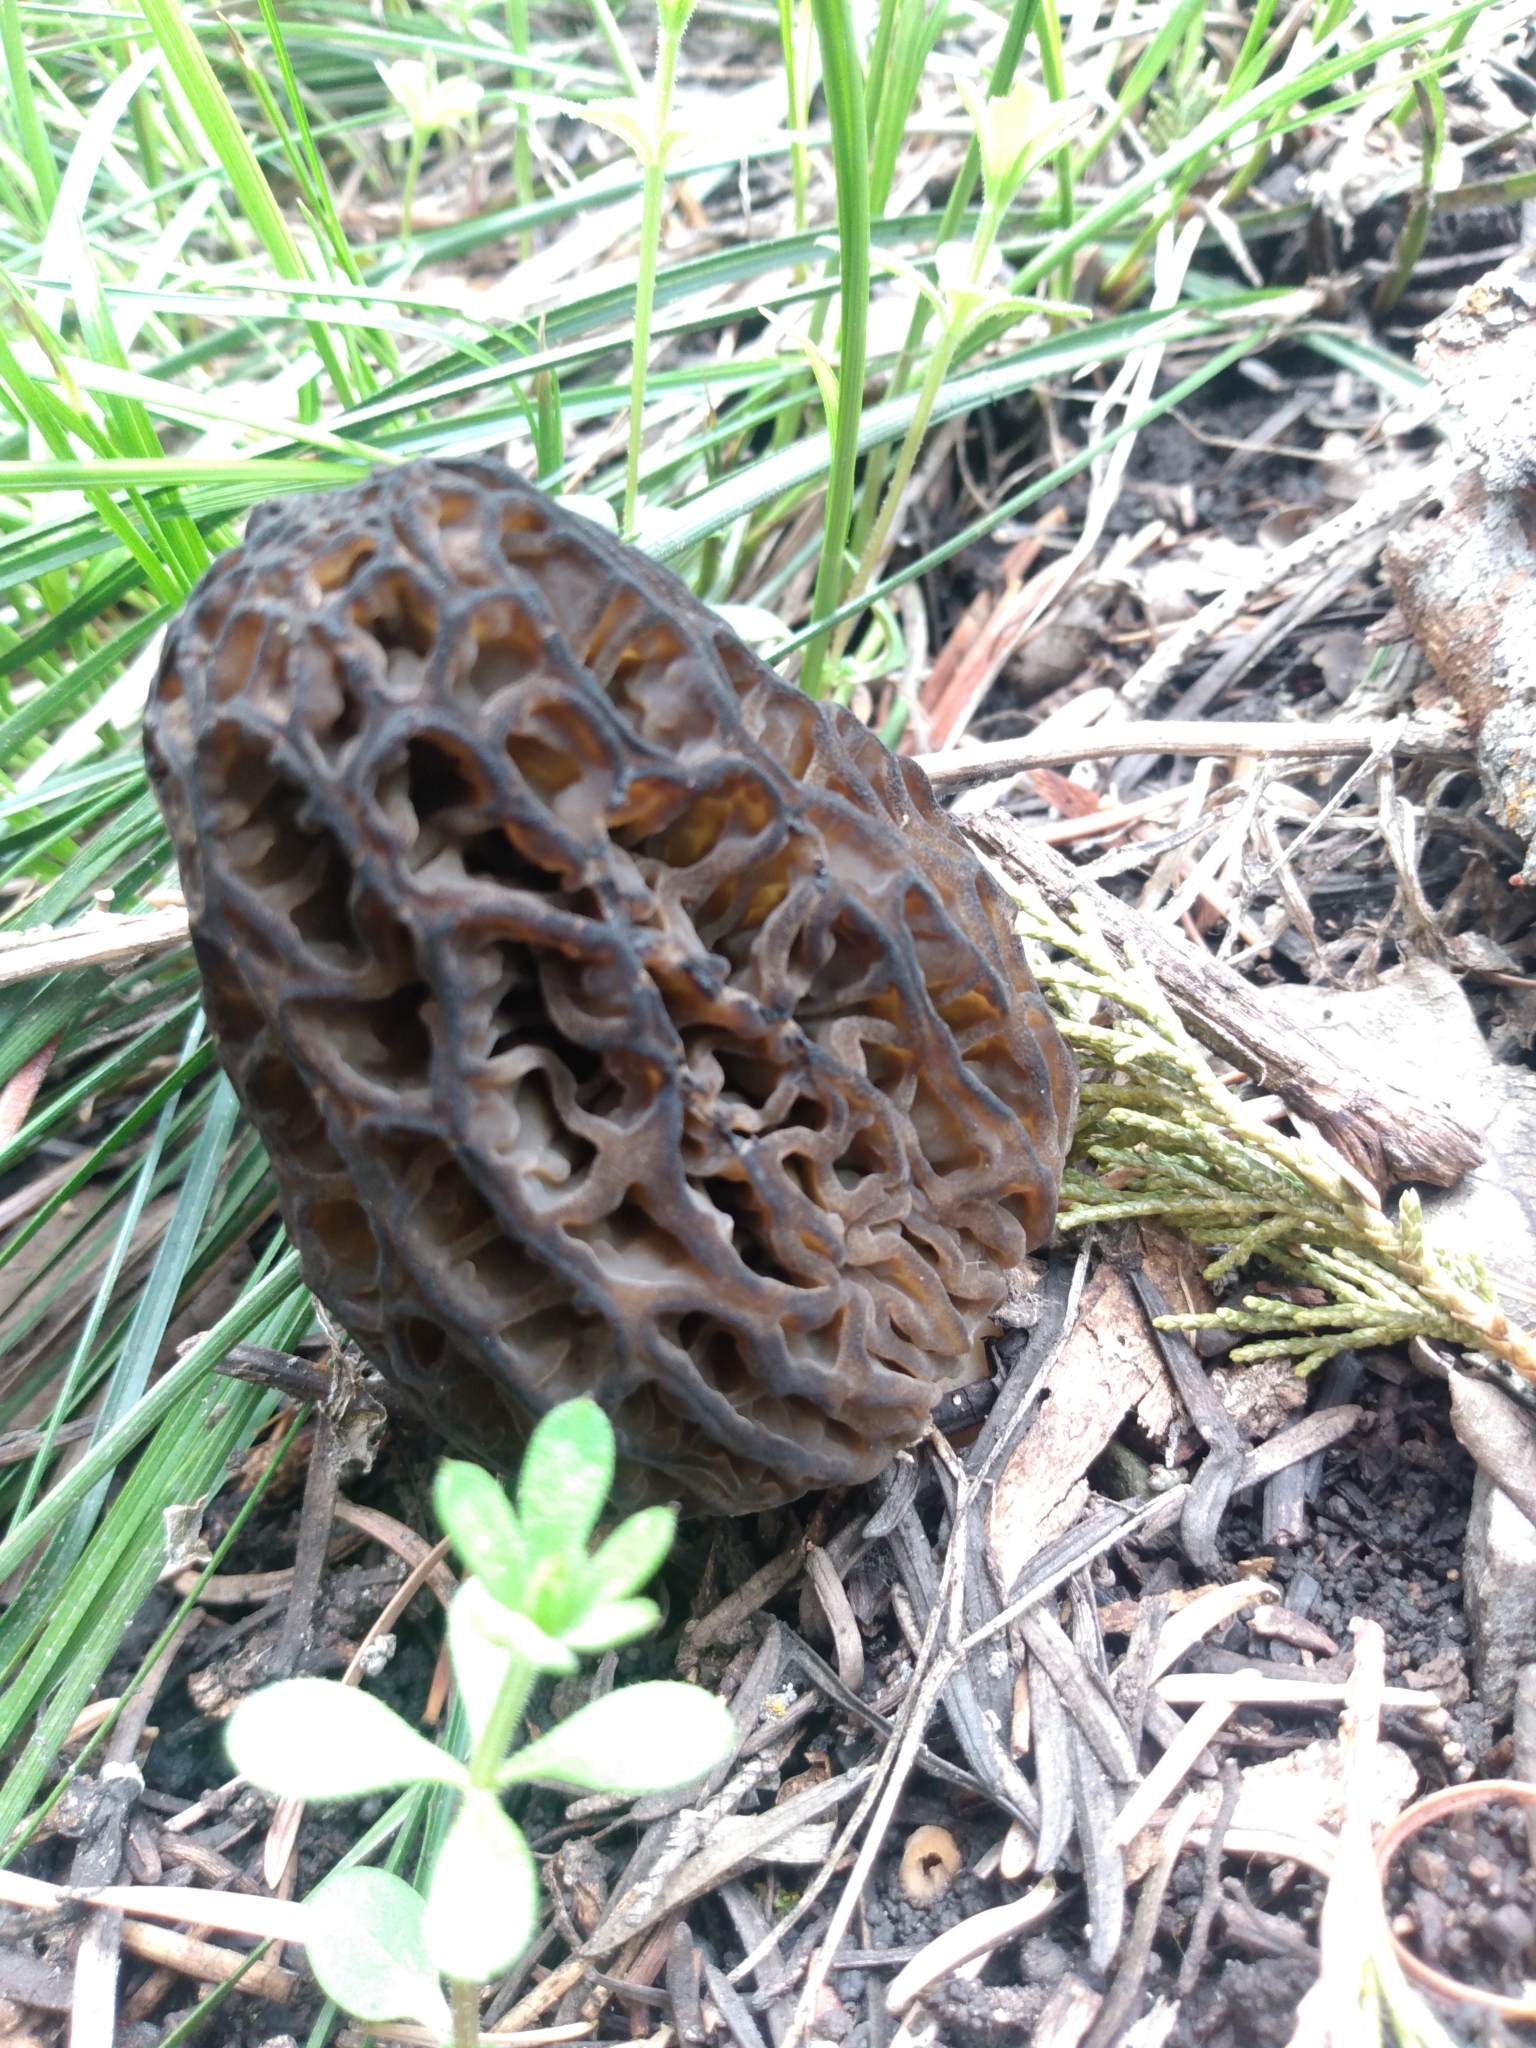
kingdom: Fungi
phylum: Ascomycota
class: Pezizomycetes
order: Pezizales
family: Morchellaceae
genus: Morchella
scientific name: Morchella snyderi
